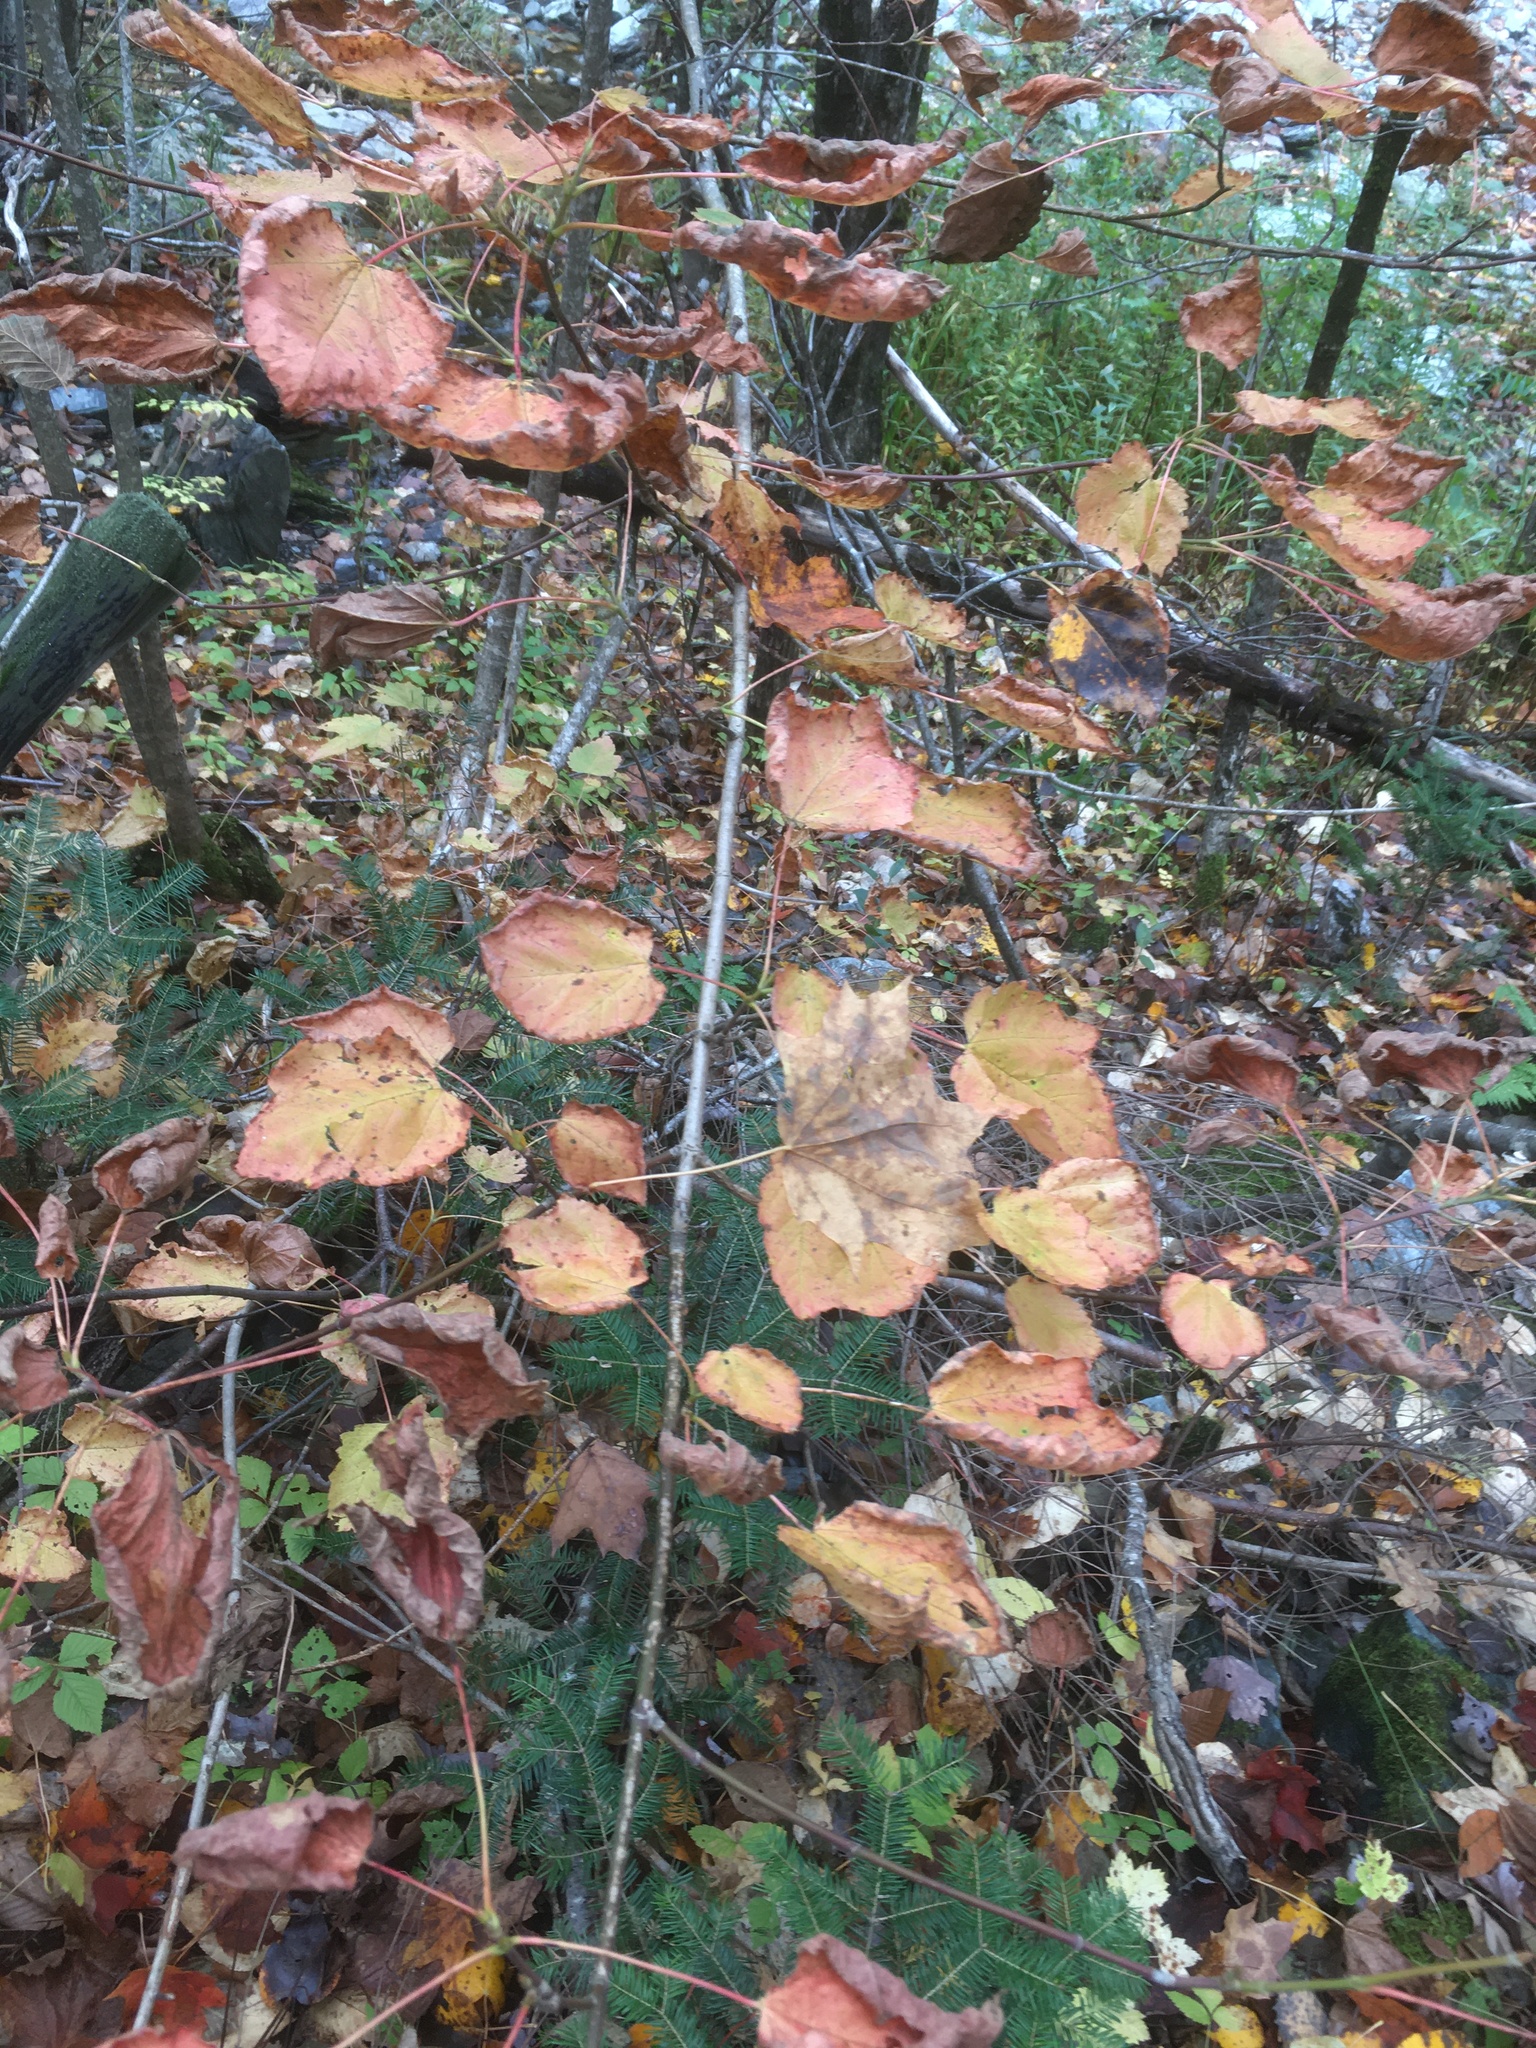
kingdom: Plantae
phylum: Tracheophyta
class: Magnoliopsida
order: Sapindales
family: Sapindaceae
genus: Acer
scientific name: Acer spicatum
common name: Mountain maple
